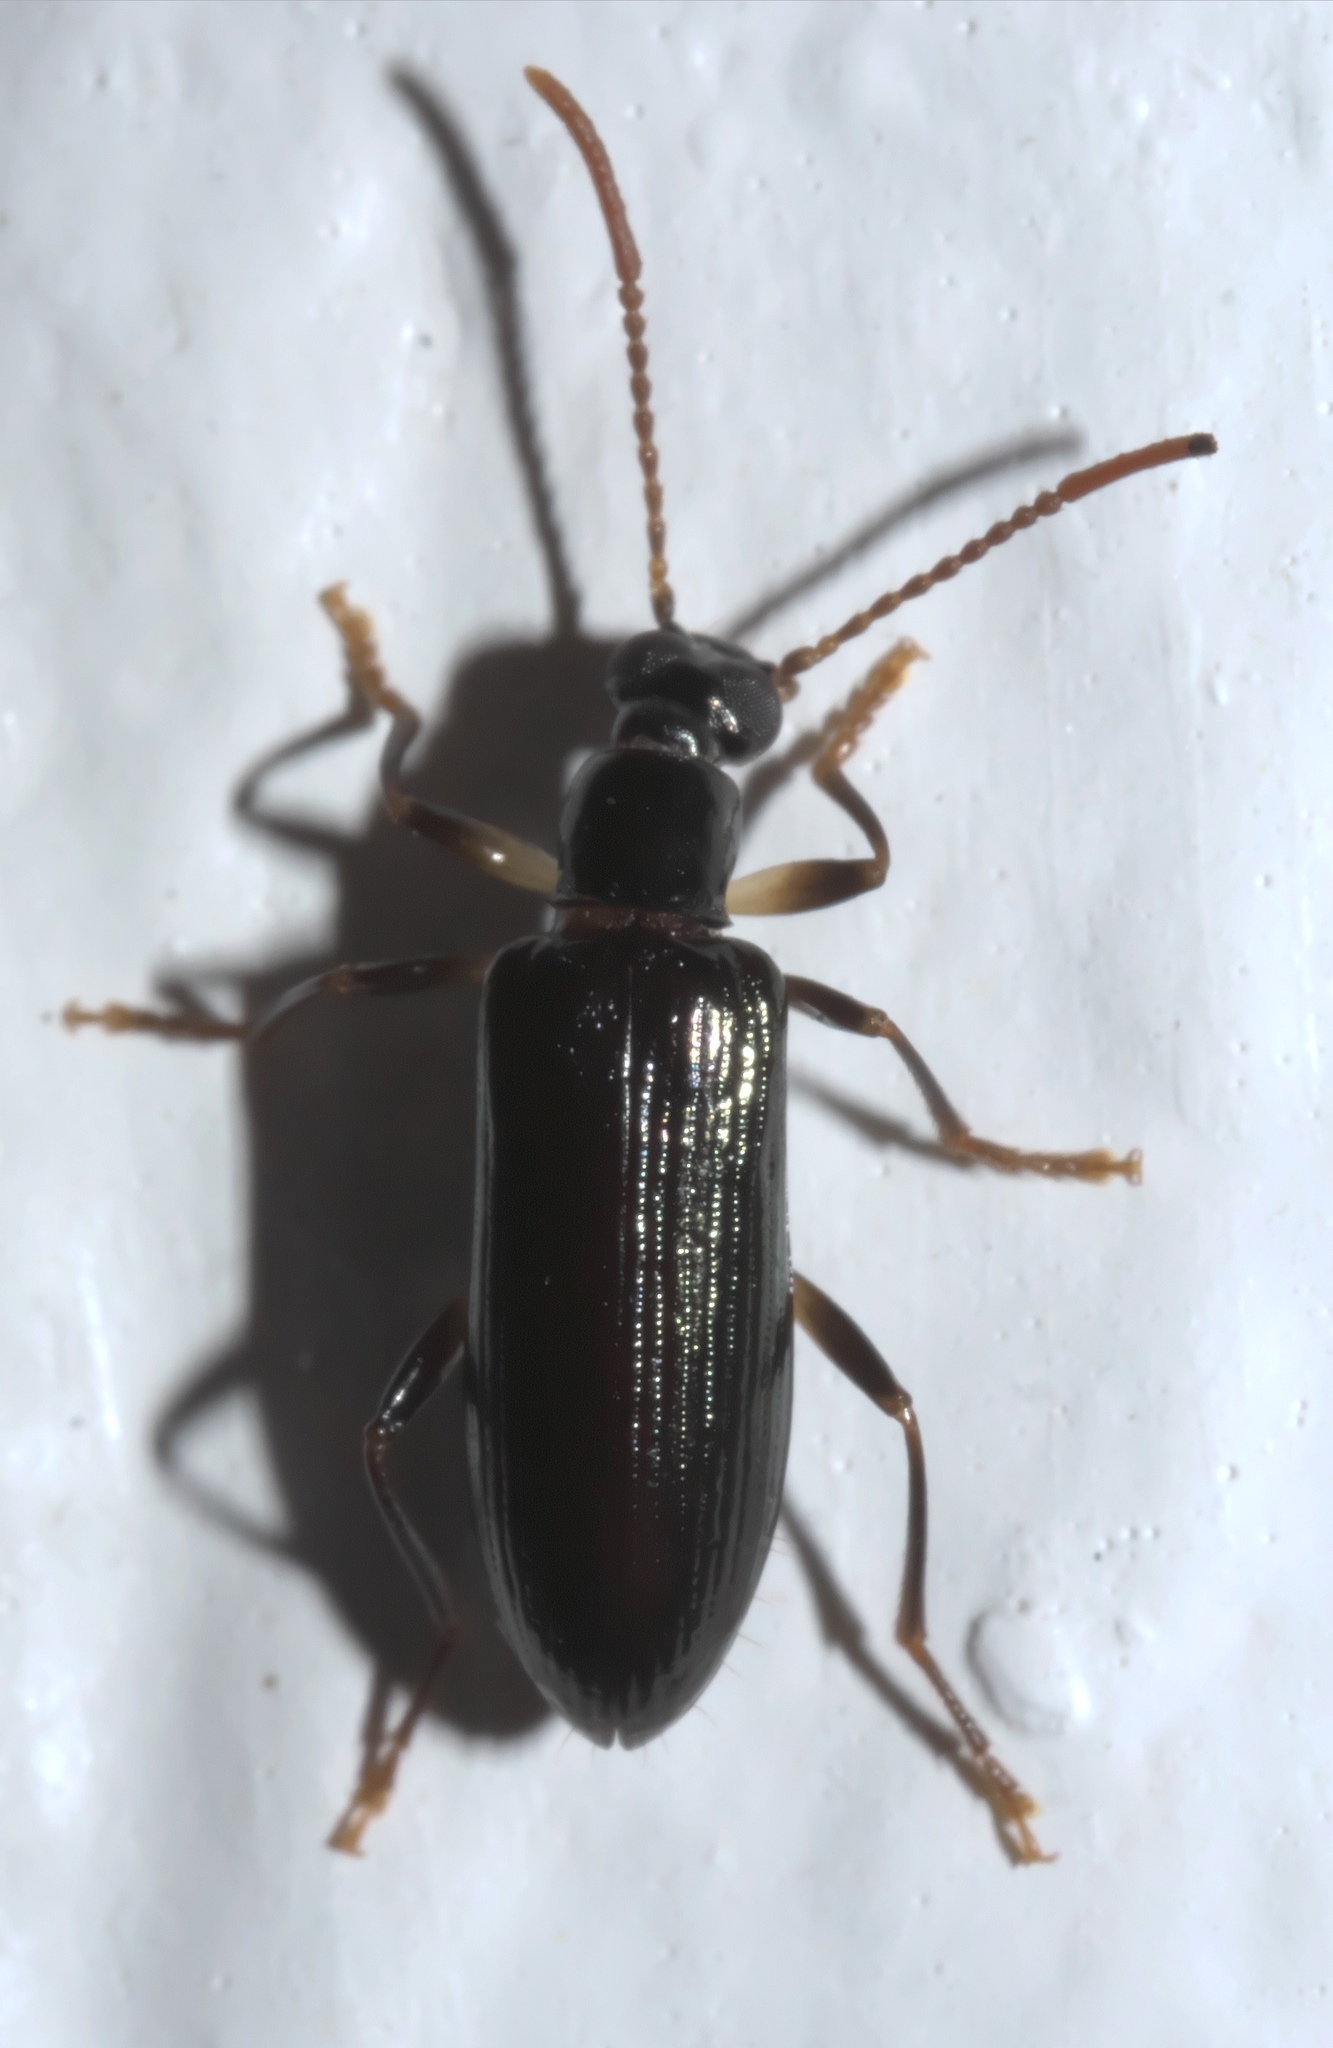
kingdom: Animalia
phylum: Arthropoda
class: Insecta
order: Coleoptera
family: Tenebrionidae
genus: Statira
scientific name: Statira basalis
